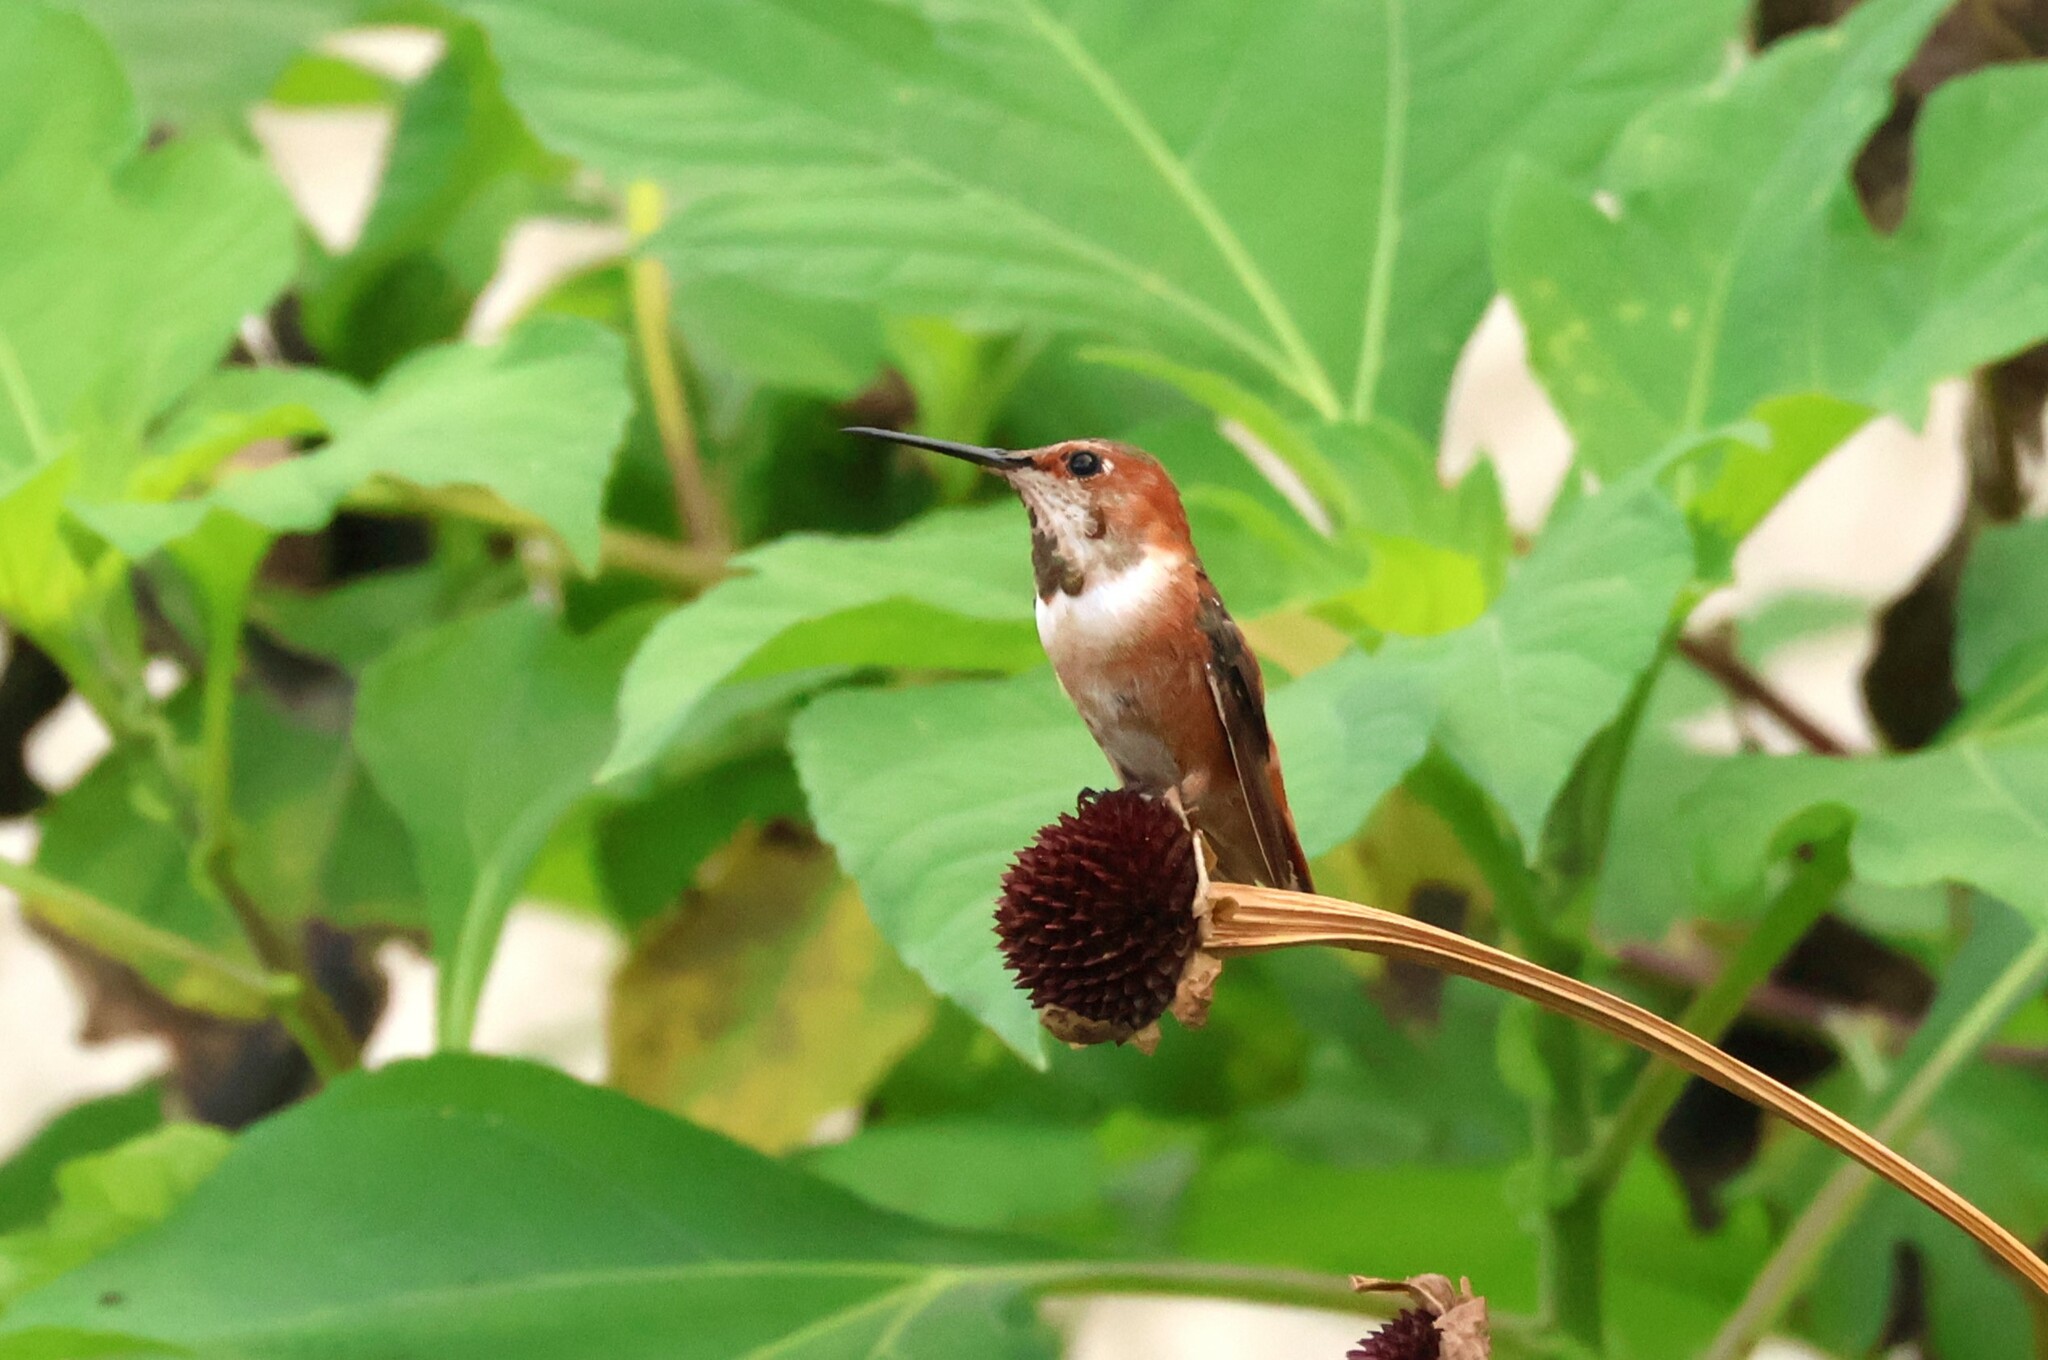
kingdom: Animalia
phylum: Chordata
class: Aves
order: Apodiformes
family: Trochilidae
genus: Selasphorus
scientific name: Selasphorus sasin
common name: Allen's hummingbird
